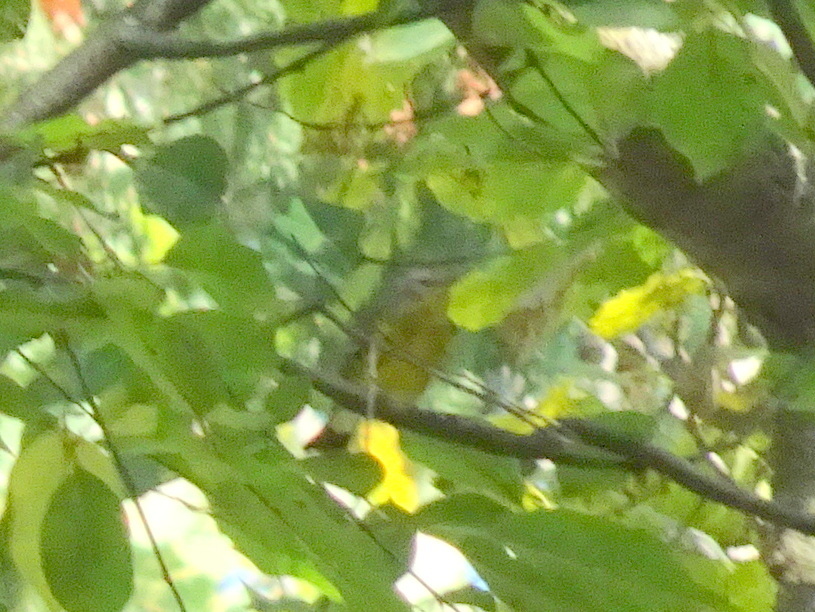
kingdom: Animalia
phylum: Chordata
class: Aves
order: Passeriformes
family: Parulidae
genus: Setophaga
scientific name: Setophaga magnolia
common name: Magnolia warbler
